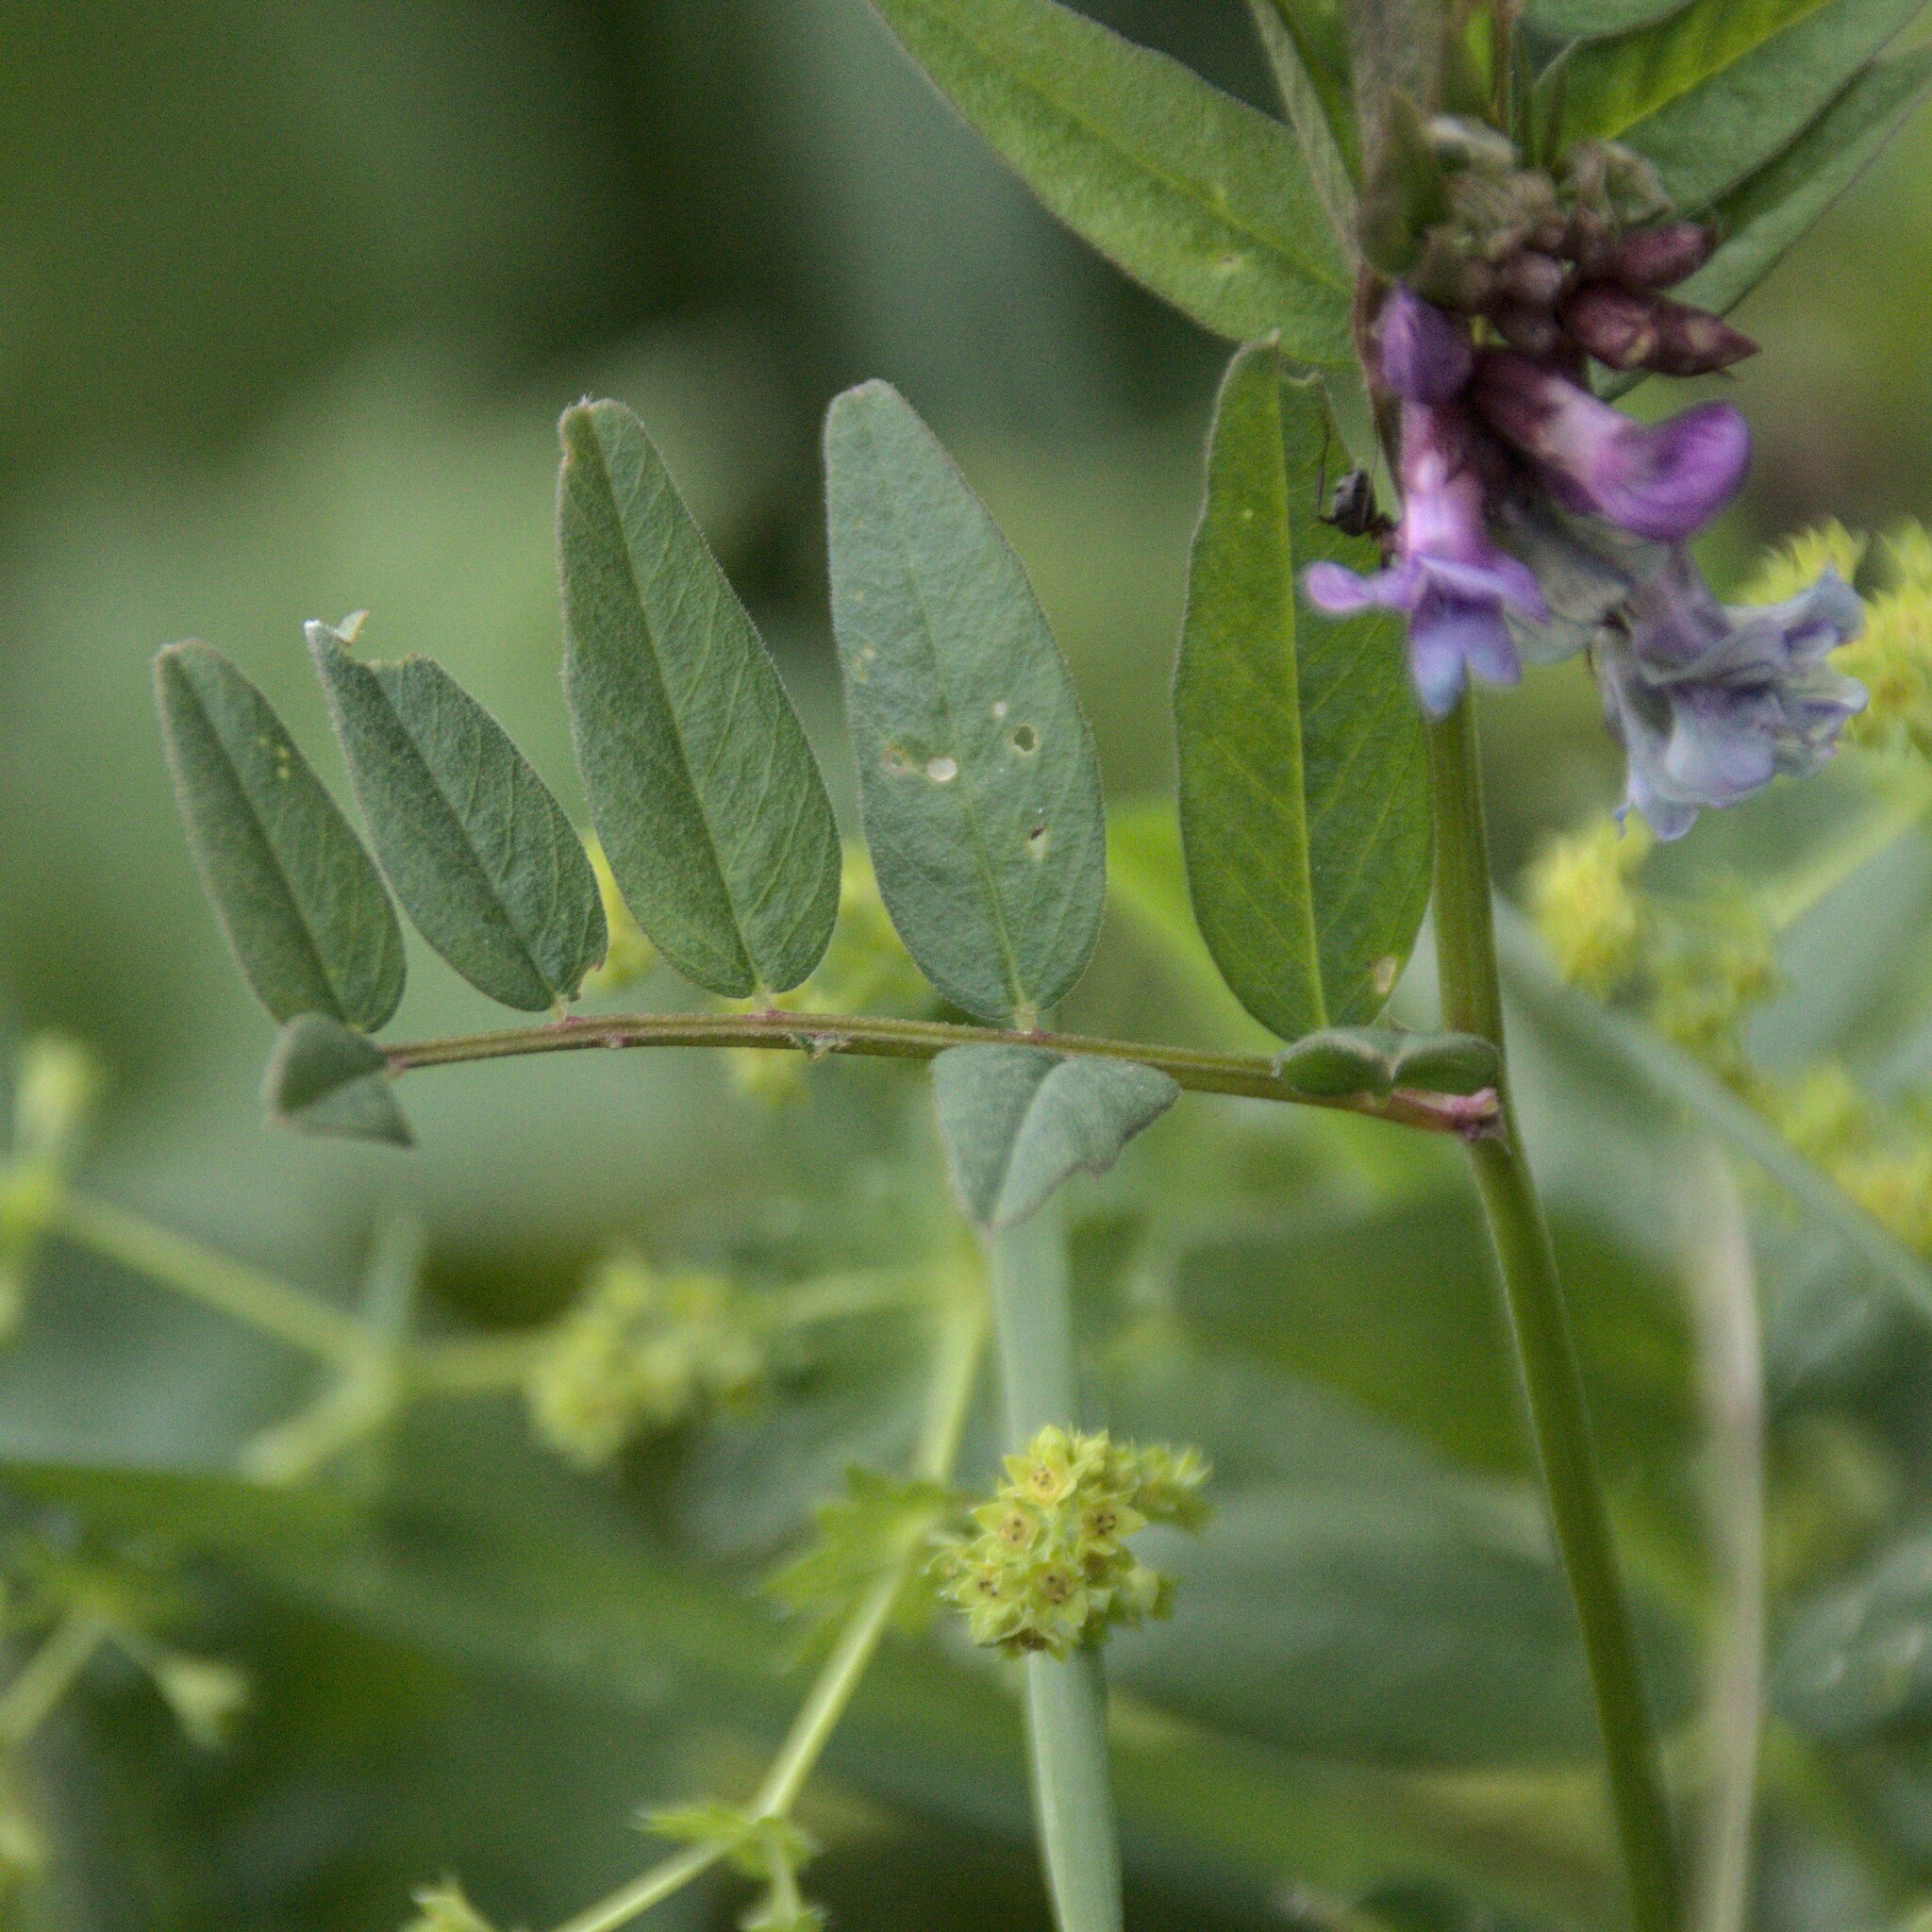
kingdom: Plantae
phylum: Tracheophyta
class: Magnoliopsida
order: Fabales
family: Fabaceae
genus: Vicia
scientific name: Vicia sepium
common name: Bush vetch
